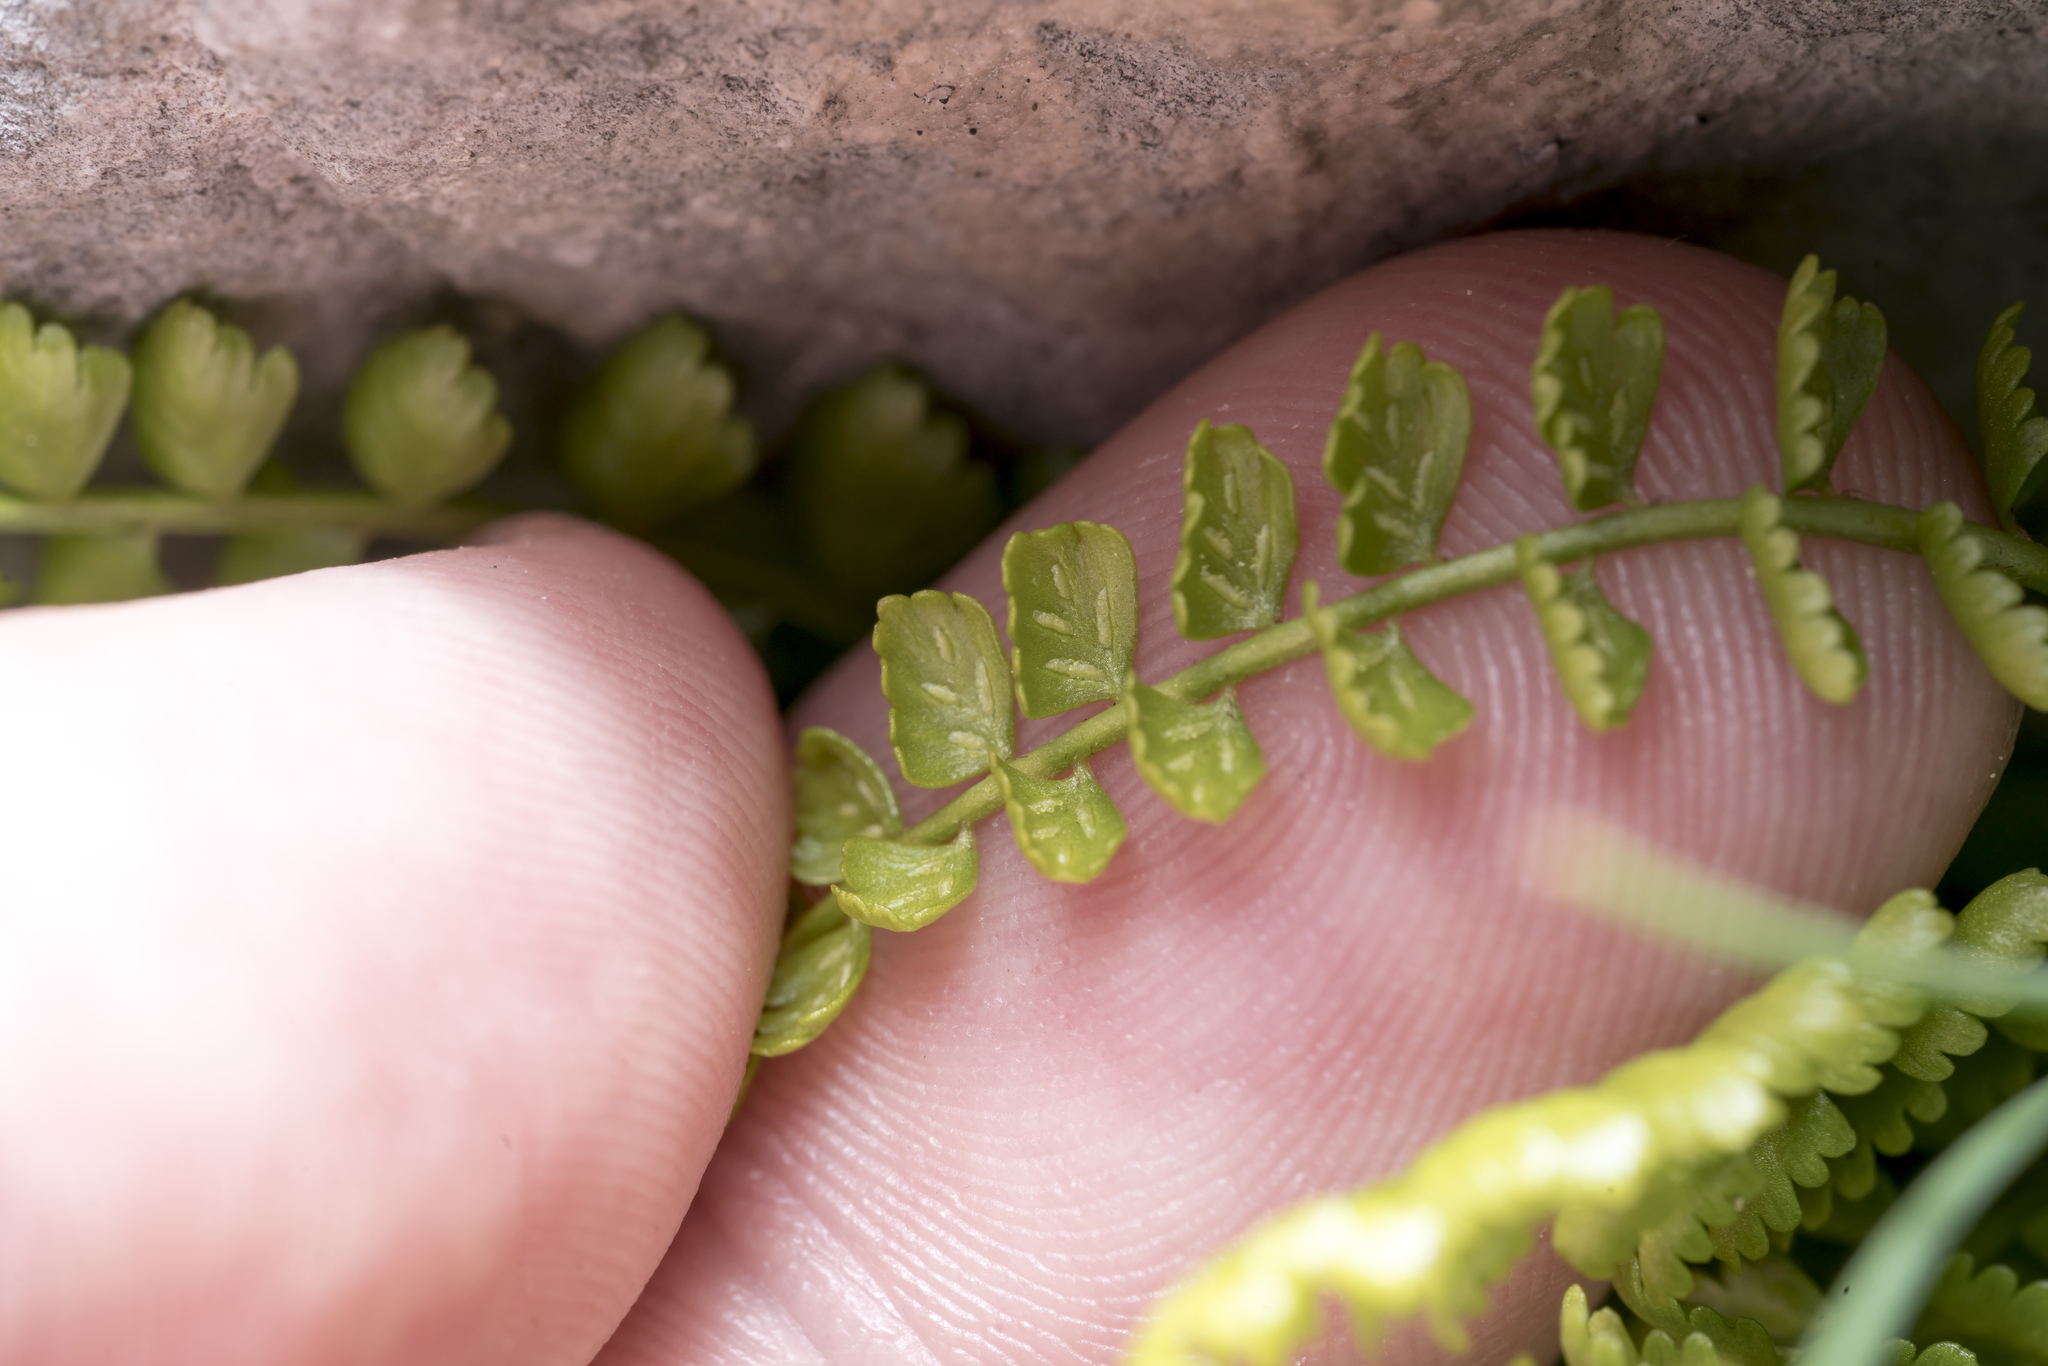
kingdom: Plantae
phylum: Tracheophyta
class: Polypodiopsida
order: Polypodiales
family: Aspleniaceae
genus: Asplenium
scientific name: Asplenium viride
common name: Green spleenwort
